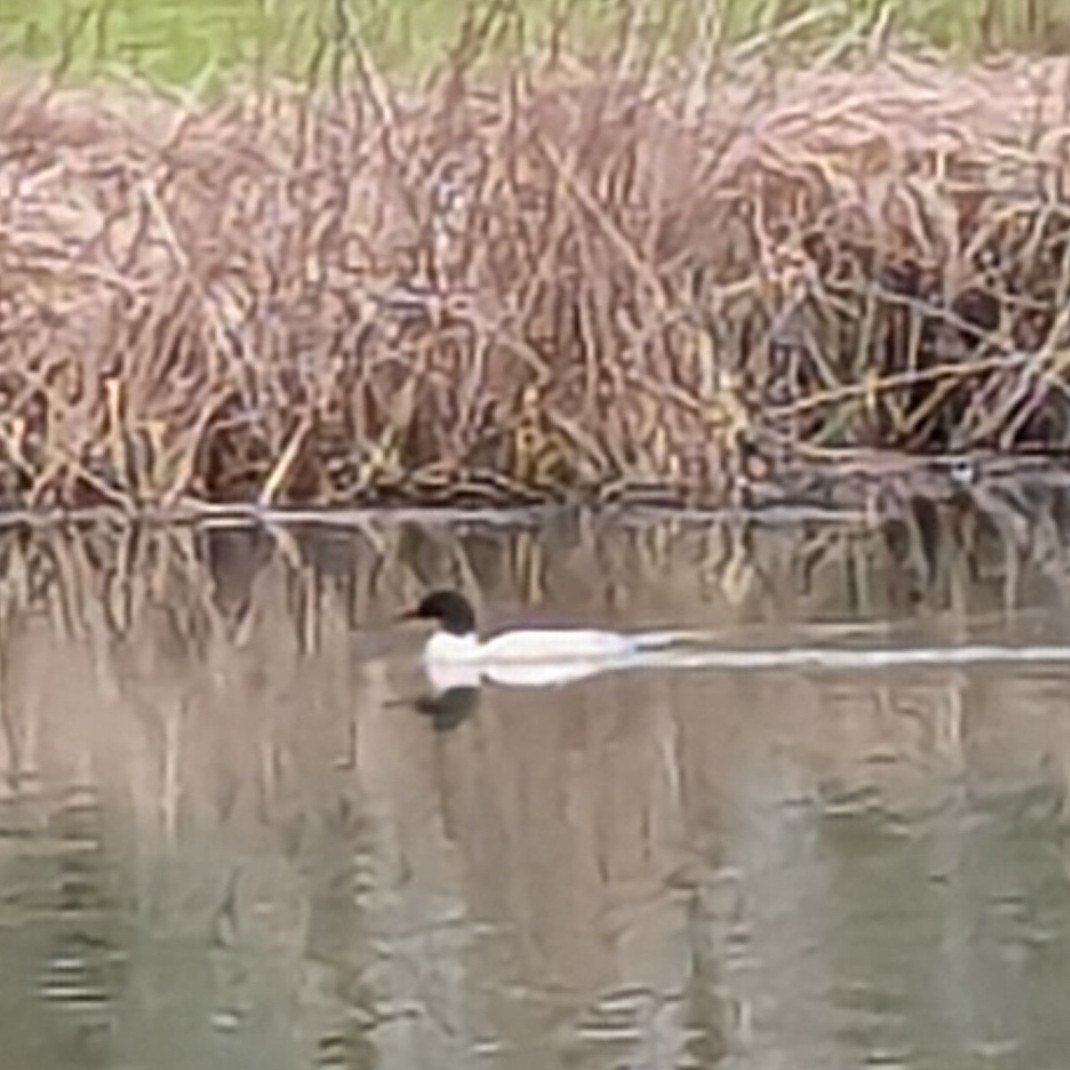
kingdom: Animalia
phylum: Chordata
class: Aves
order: Anseriformes
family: Anatidae
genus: Mergus
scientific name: Mergus merganser
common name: Common merganser
